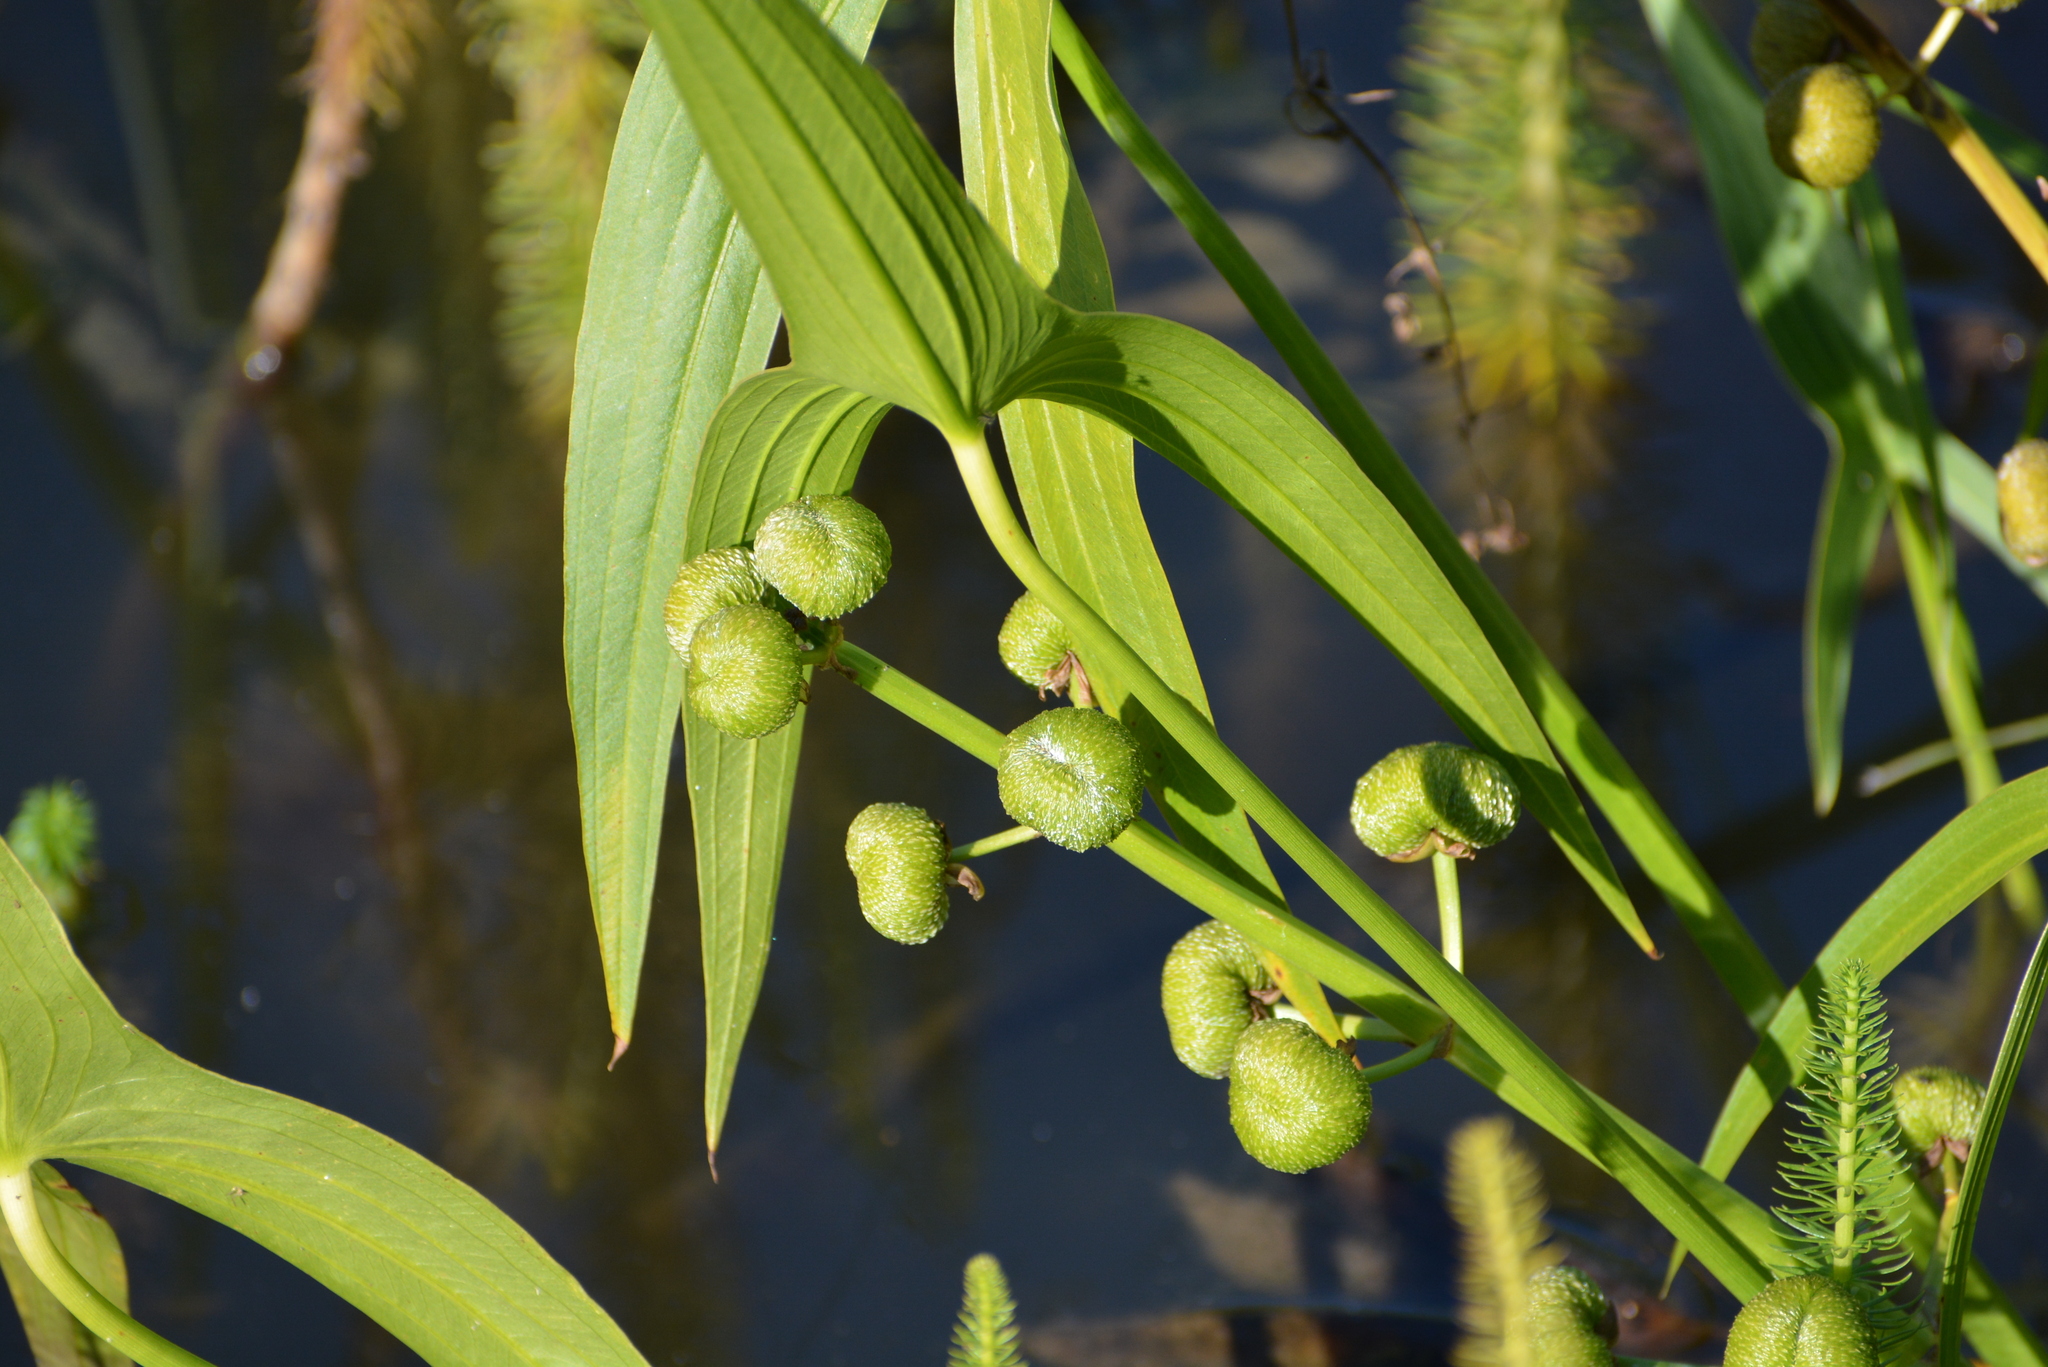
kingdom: Plantae
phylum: Tracheophyta
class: Liliopsida
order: Alismatales
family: Alismataceae
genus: Sagittaria
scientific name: Sagittaria sagittifolia
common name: Arrowhead
